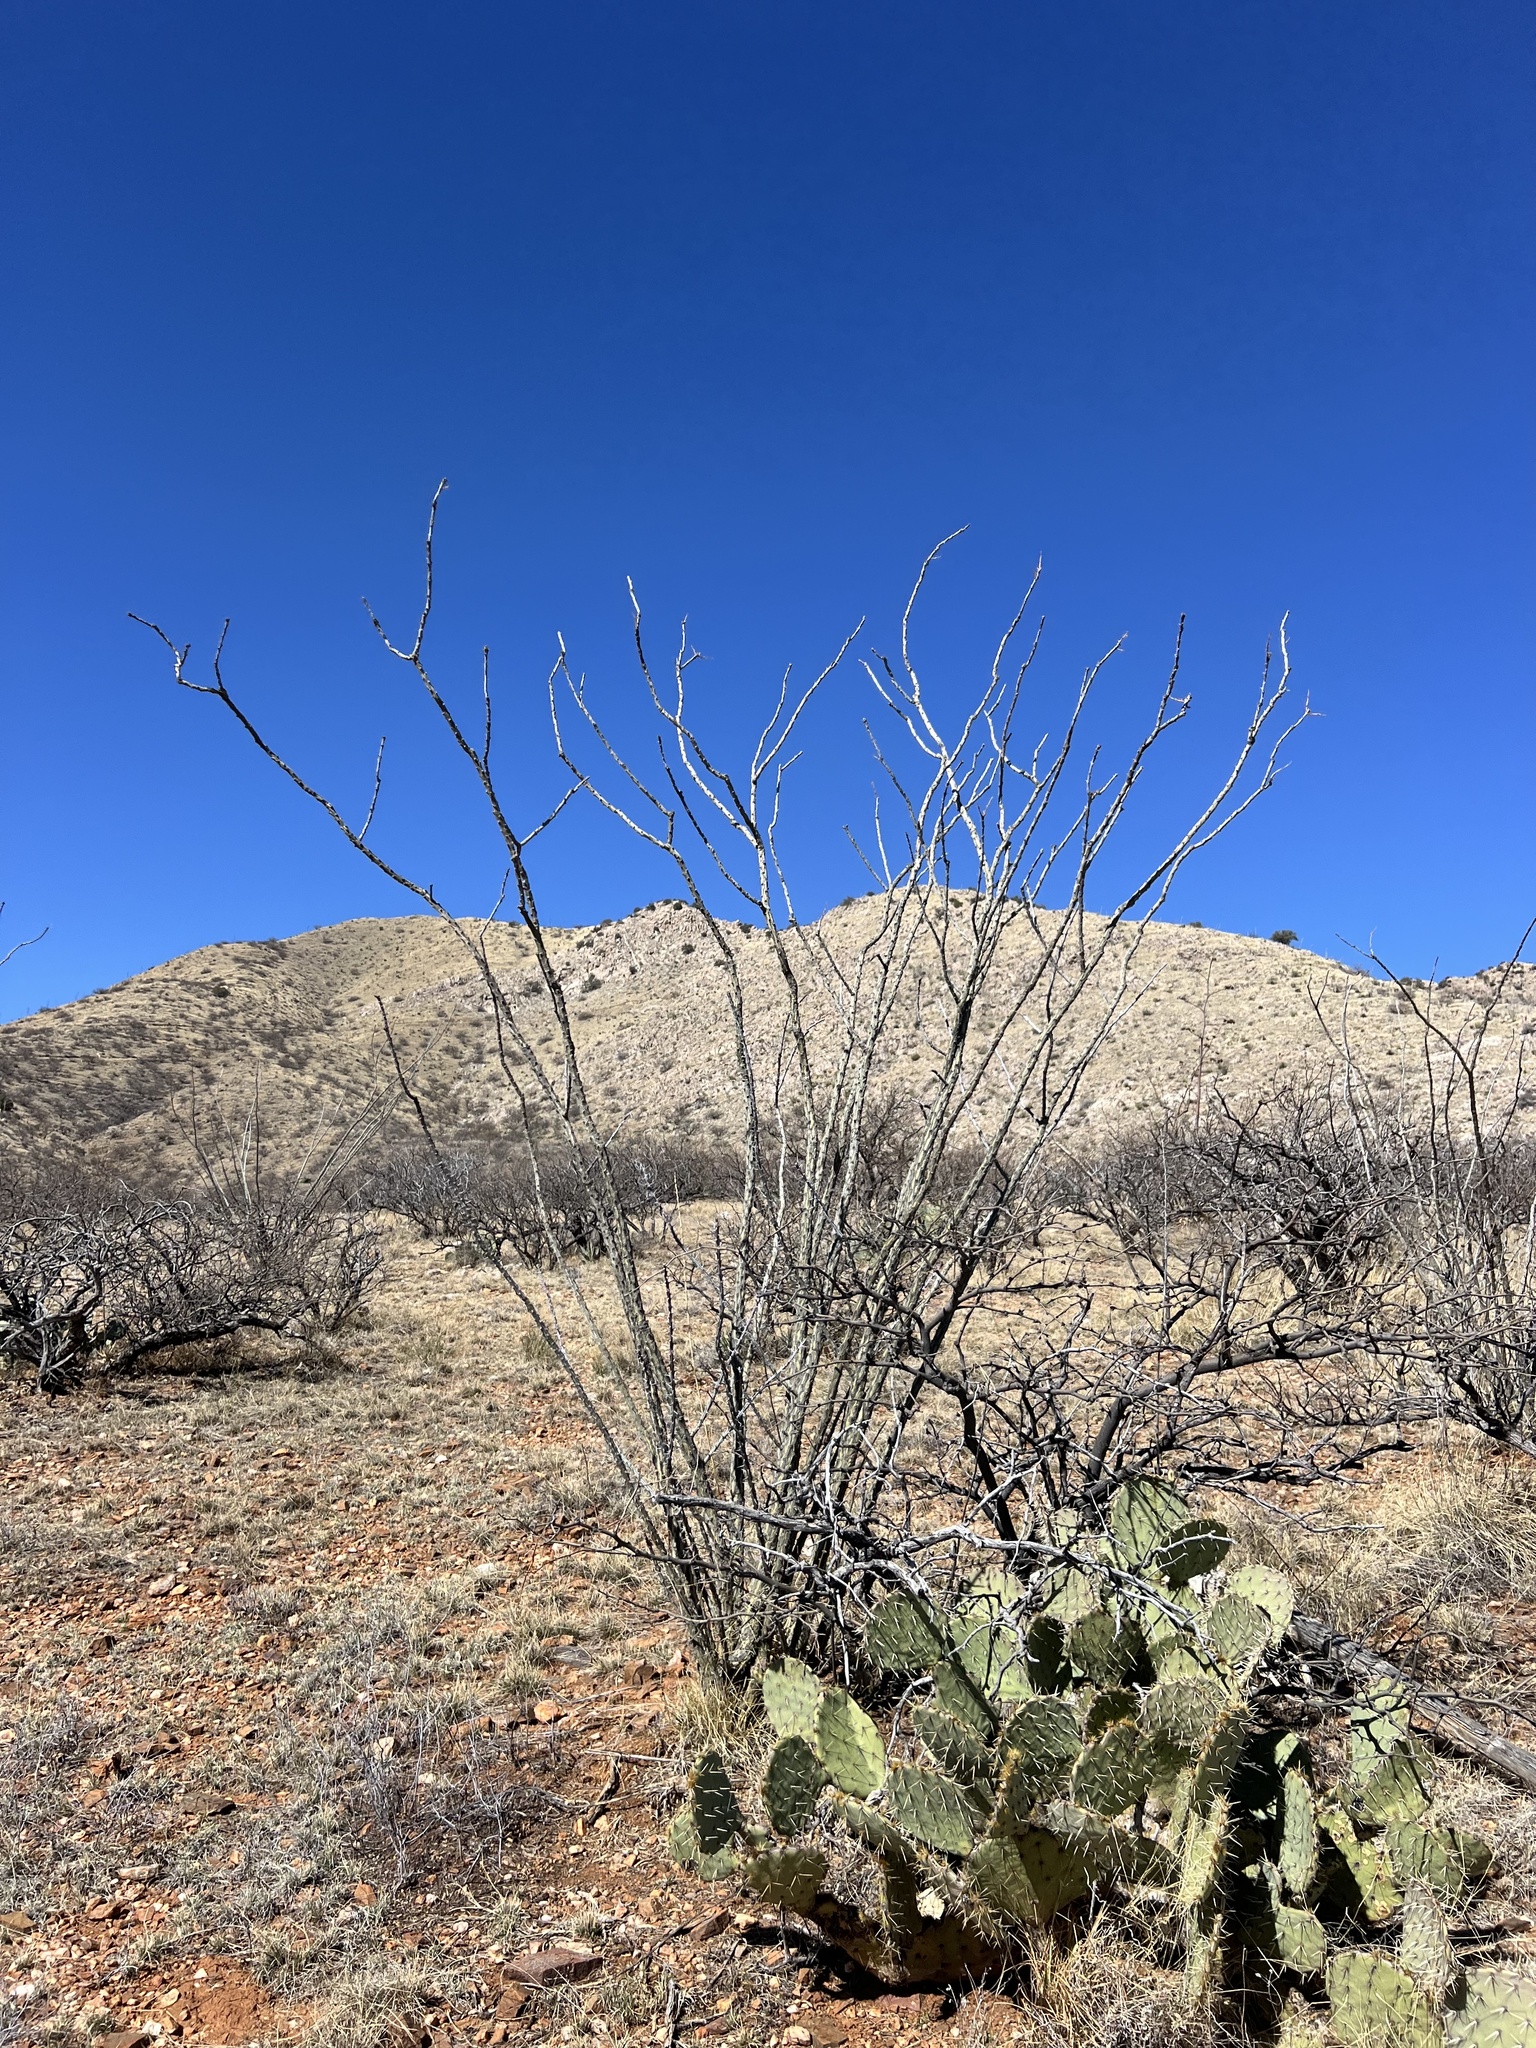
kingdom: Plantae
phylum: Tracheophyta
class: Magnoliopsida
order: Ericales
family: Fouquieriaceae
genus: Fouquieria
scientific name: Fouquieria splendens
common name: Vine-cactus
